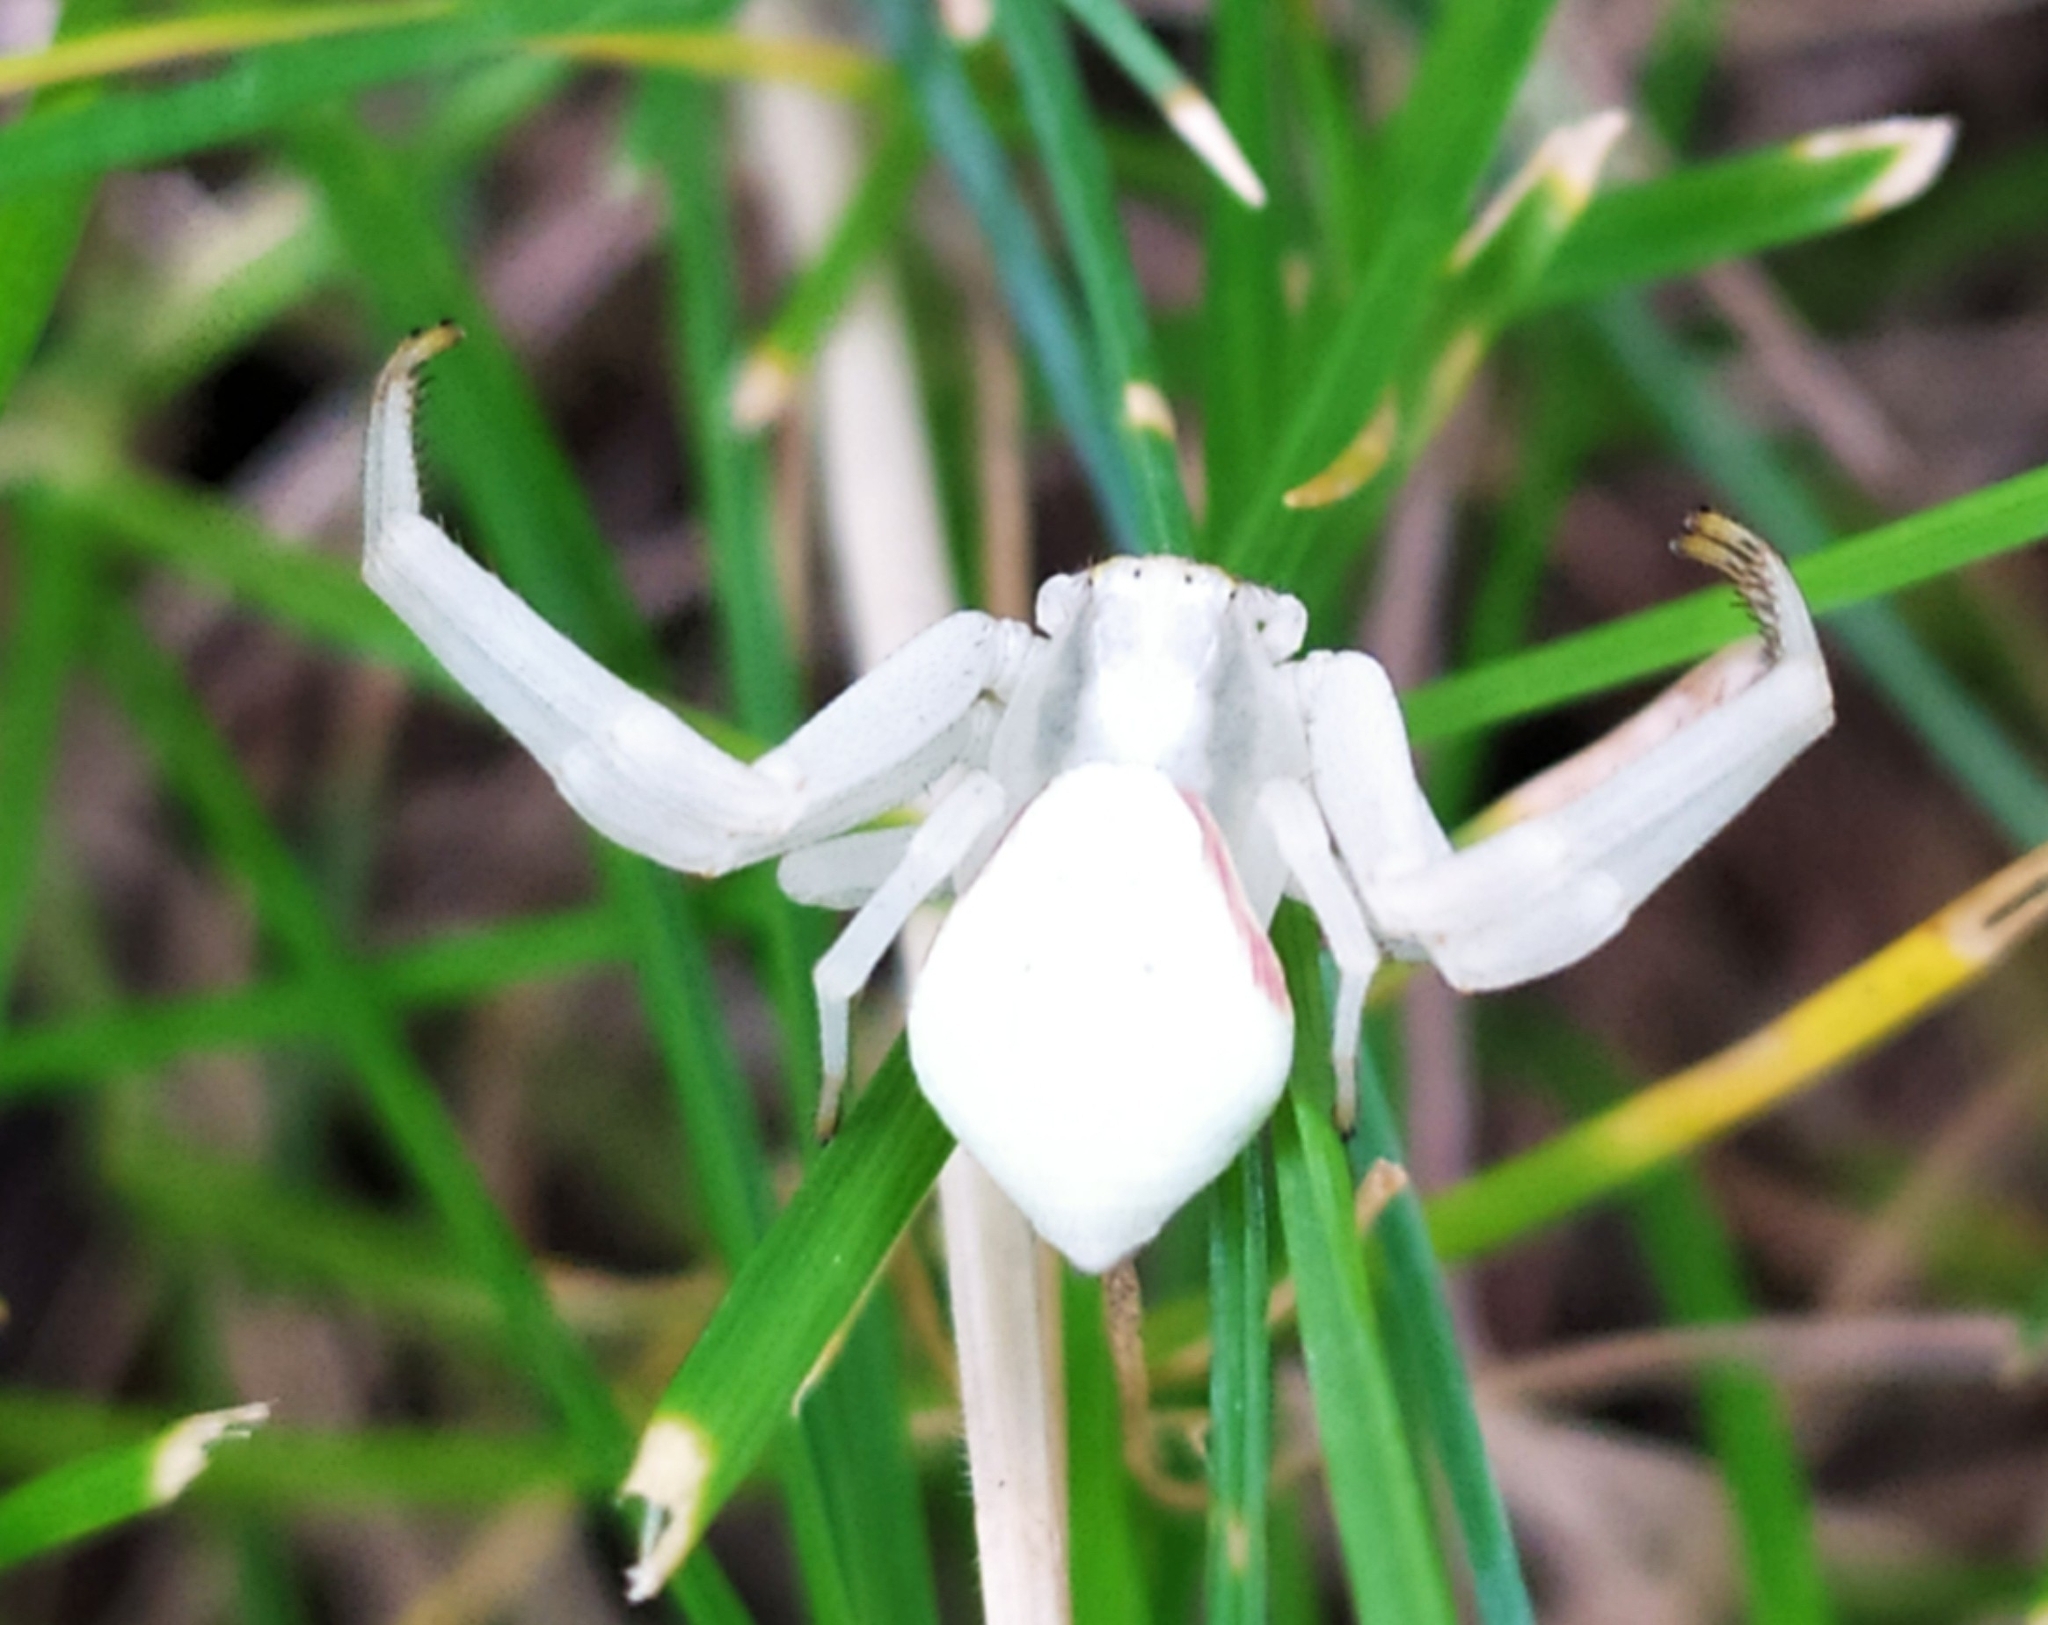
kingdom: Animalia
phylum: Arthropoda
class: Arachnida
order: Araneae
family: Thomisidae
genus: Misumena
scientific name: Misumena vatia
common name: Goldenrod crab spider
